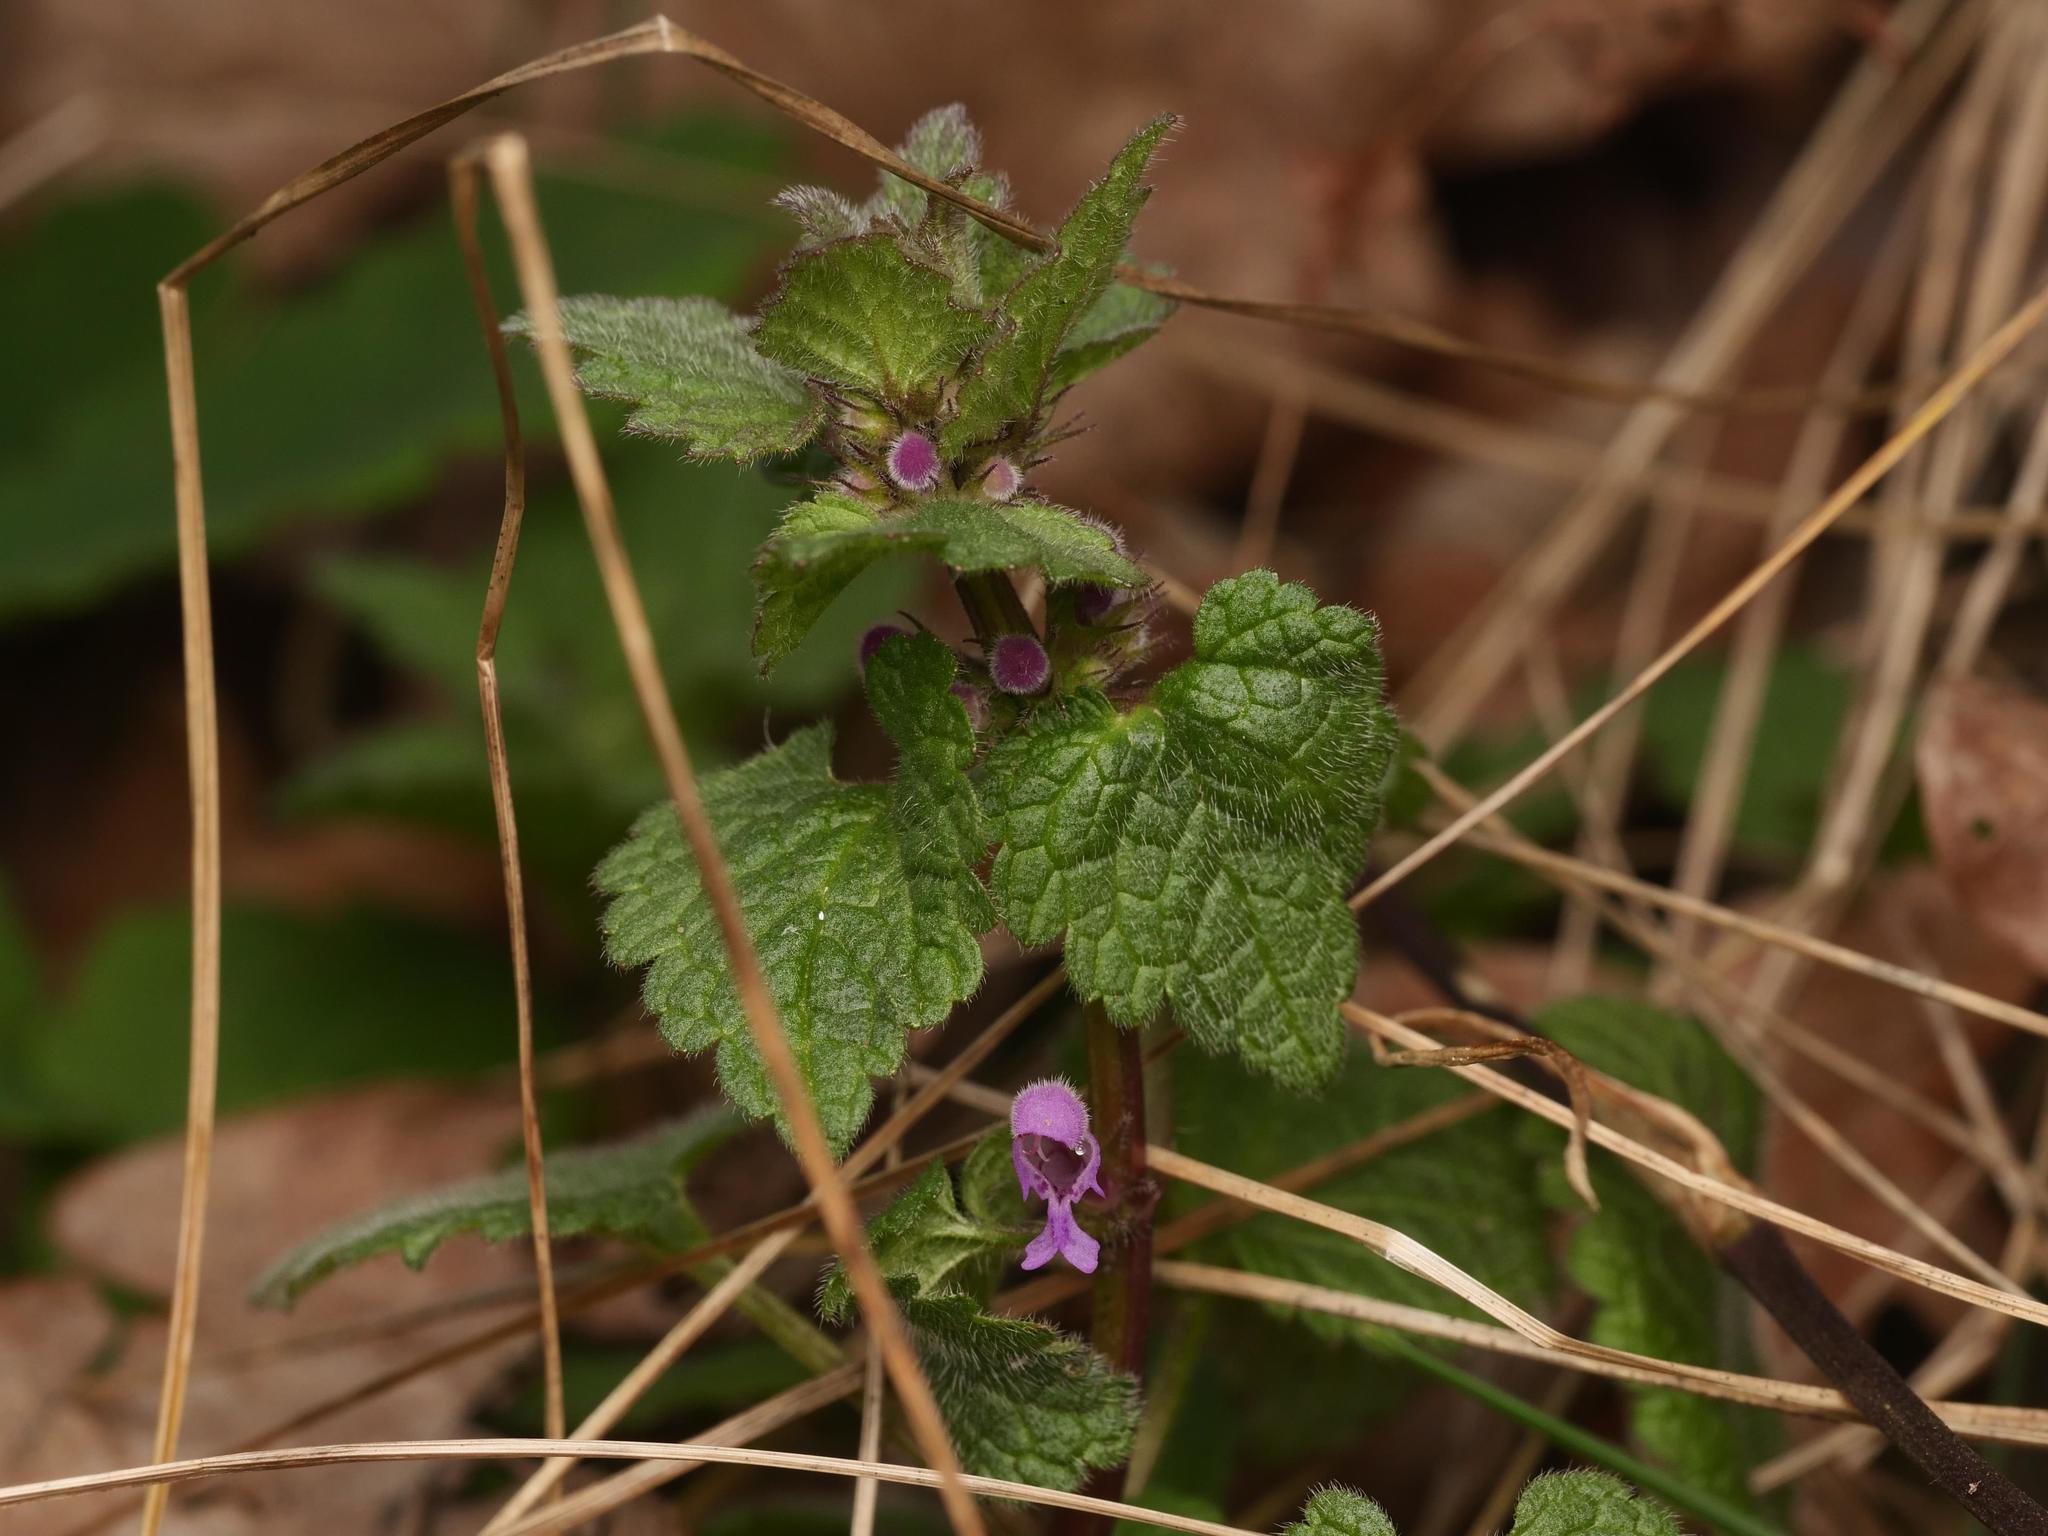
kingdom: Plantae
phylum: Tracheophyta
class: Magnoliopsida
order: Lamiales
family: Lamiaceae
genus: Lamium
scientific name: Lamium purpureum
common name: Red dead-nettle
